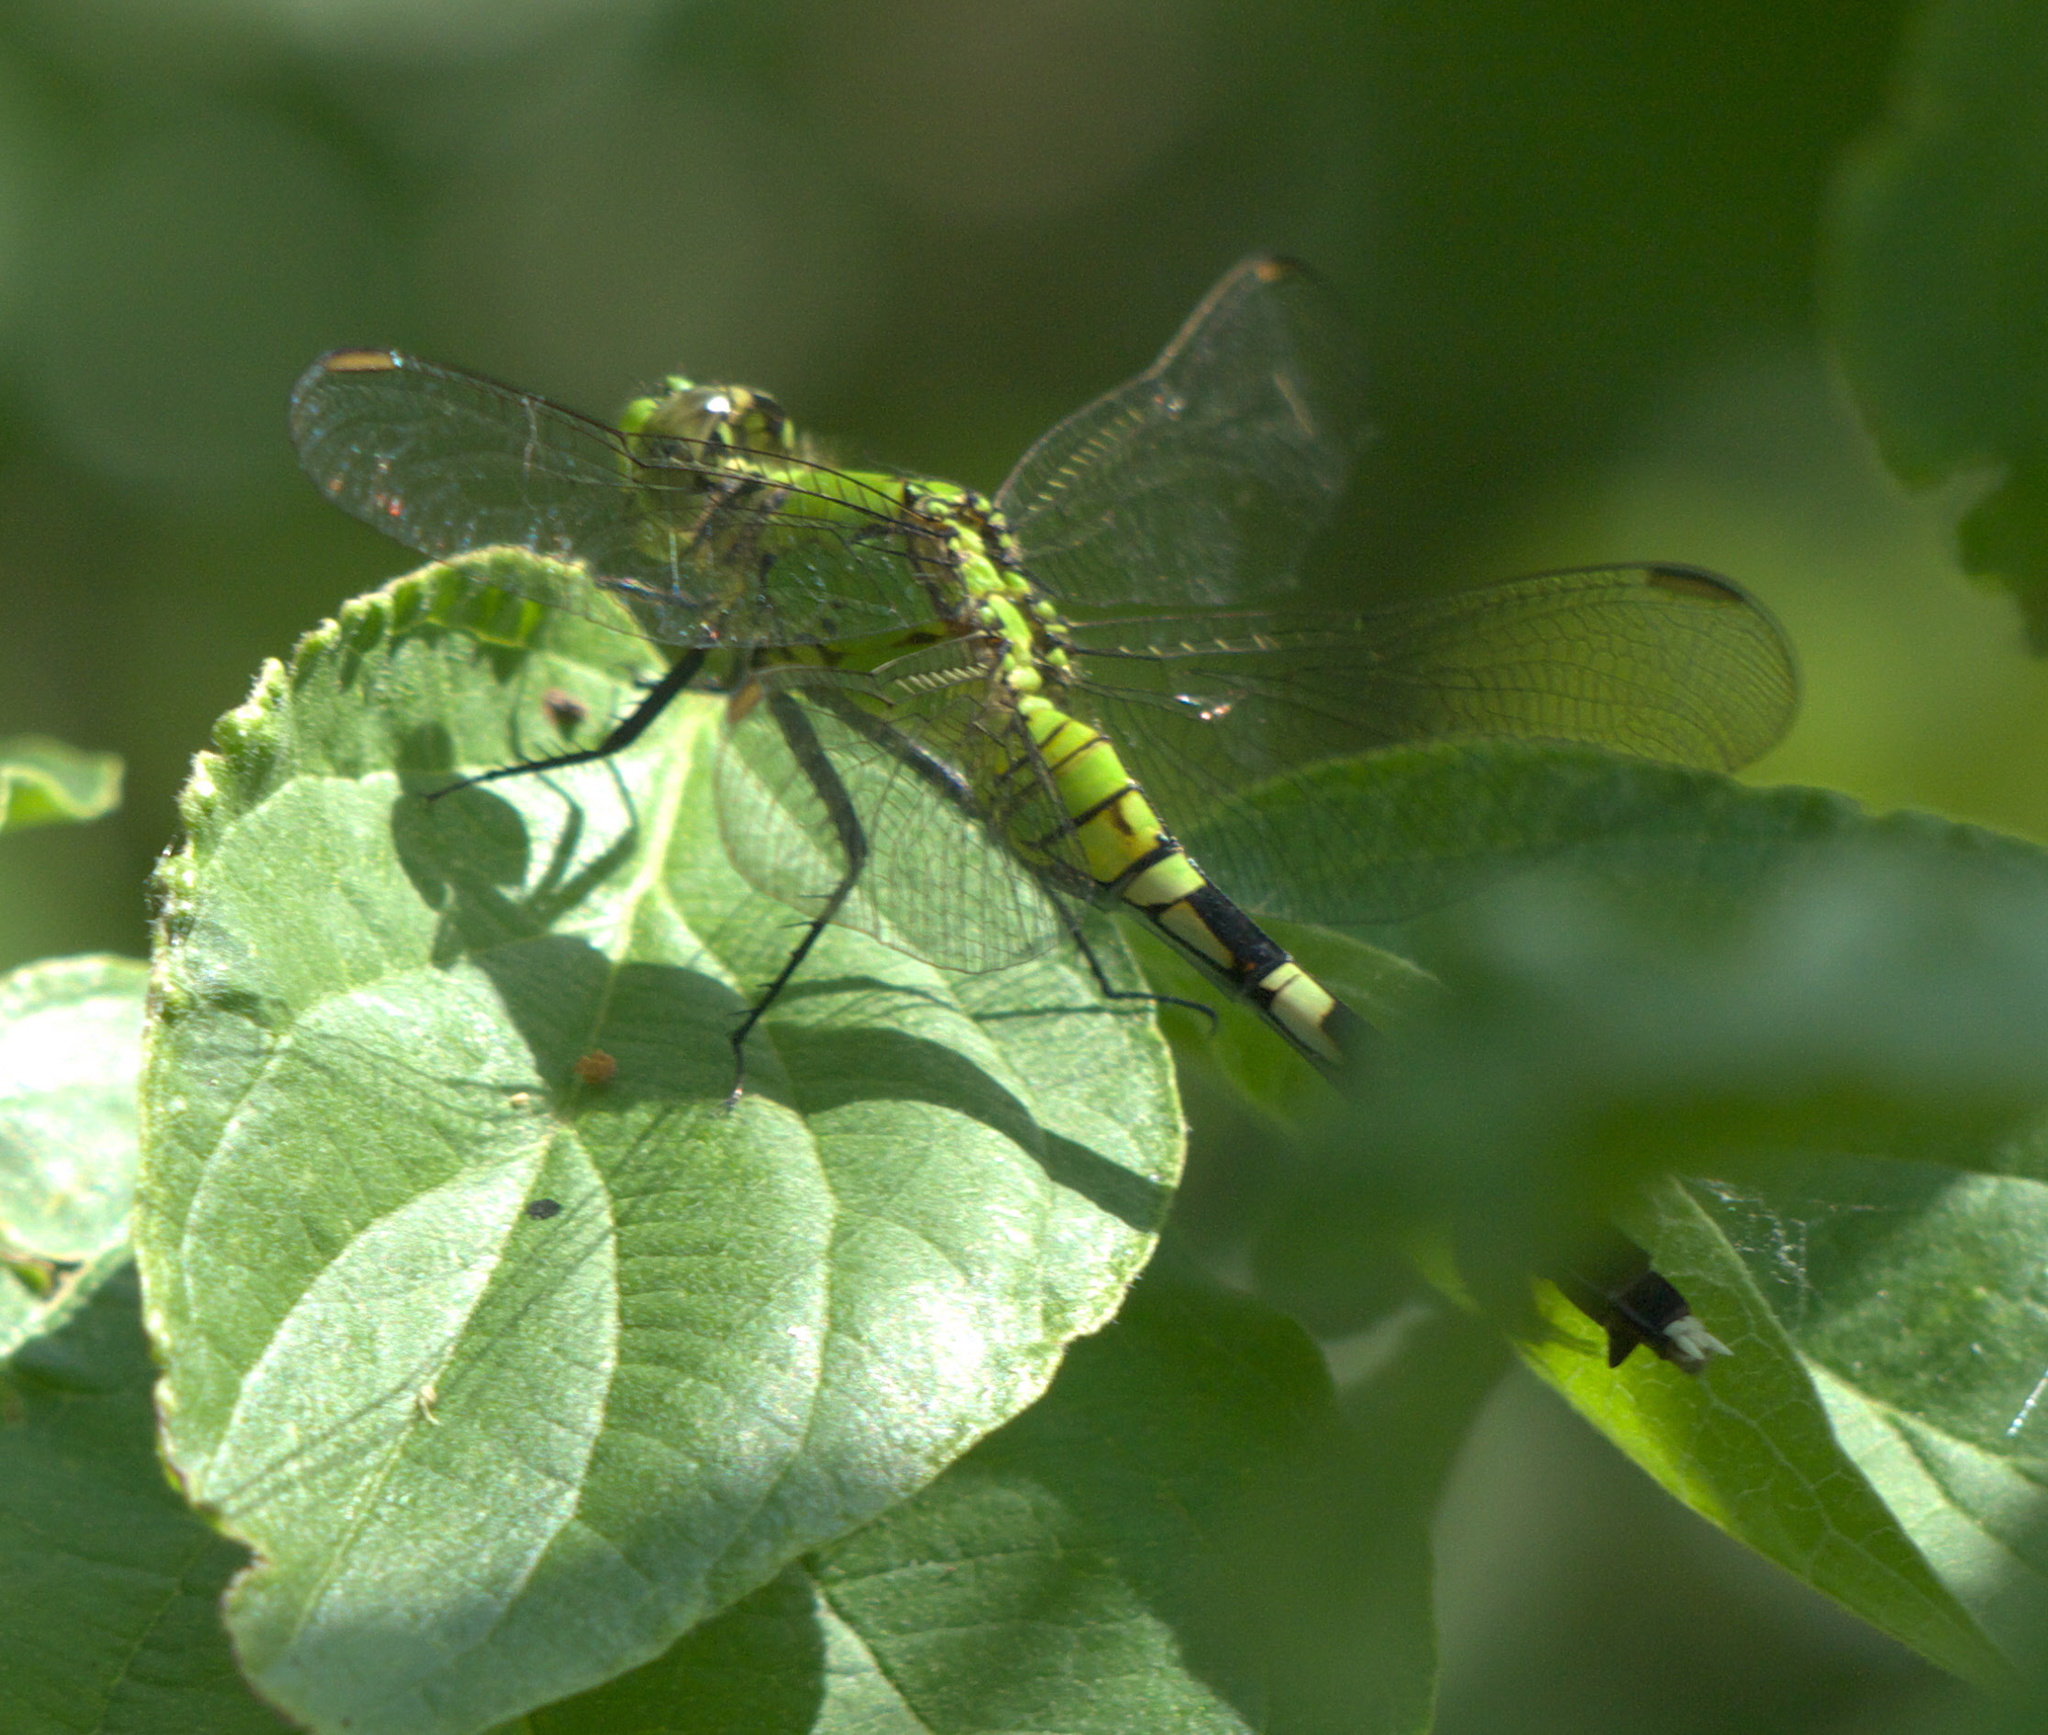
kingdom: Animalia
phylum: Arthropoda
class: Insecta
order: Odonata
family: Libellulidae
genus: Erythemis
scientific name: Erythemis simplicicollis
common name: Eastern pondhawk
